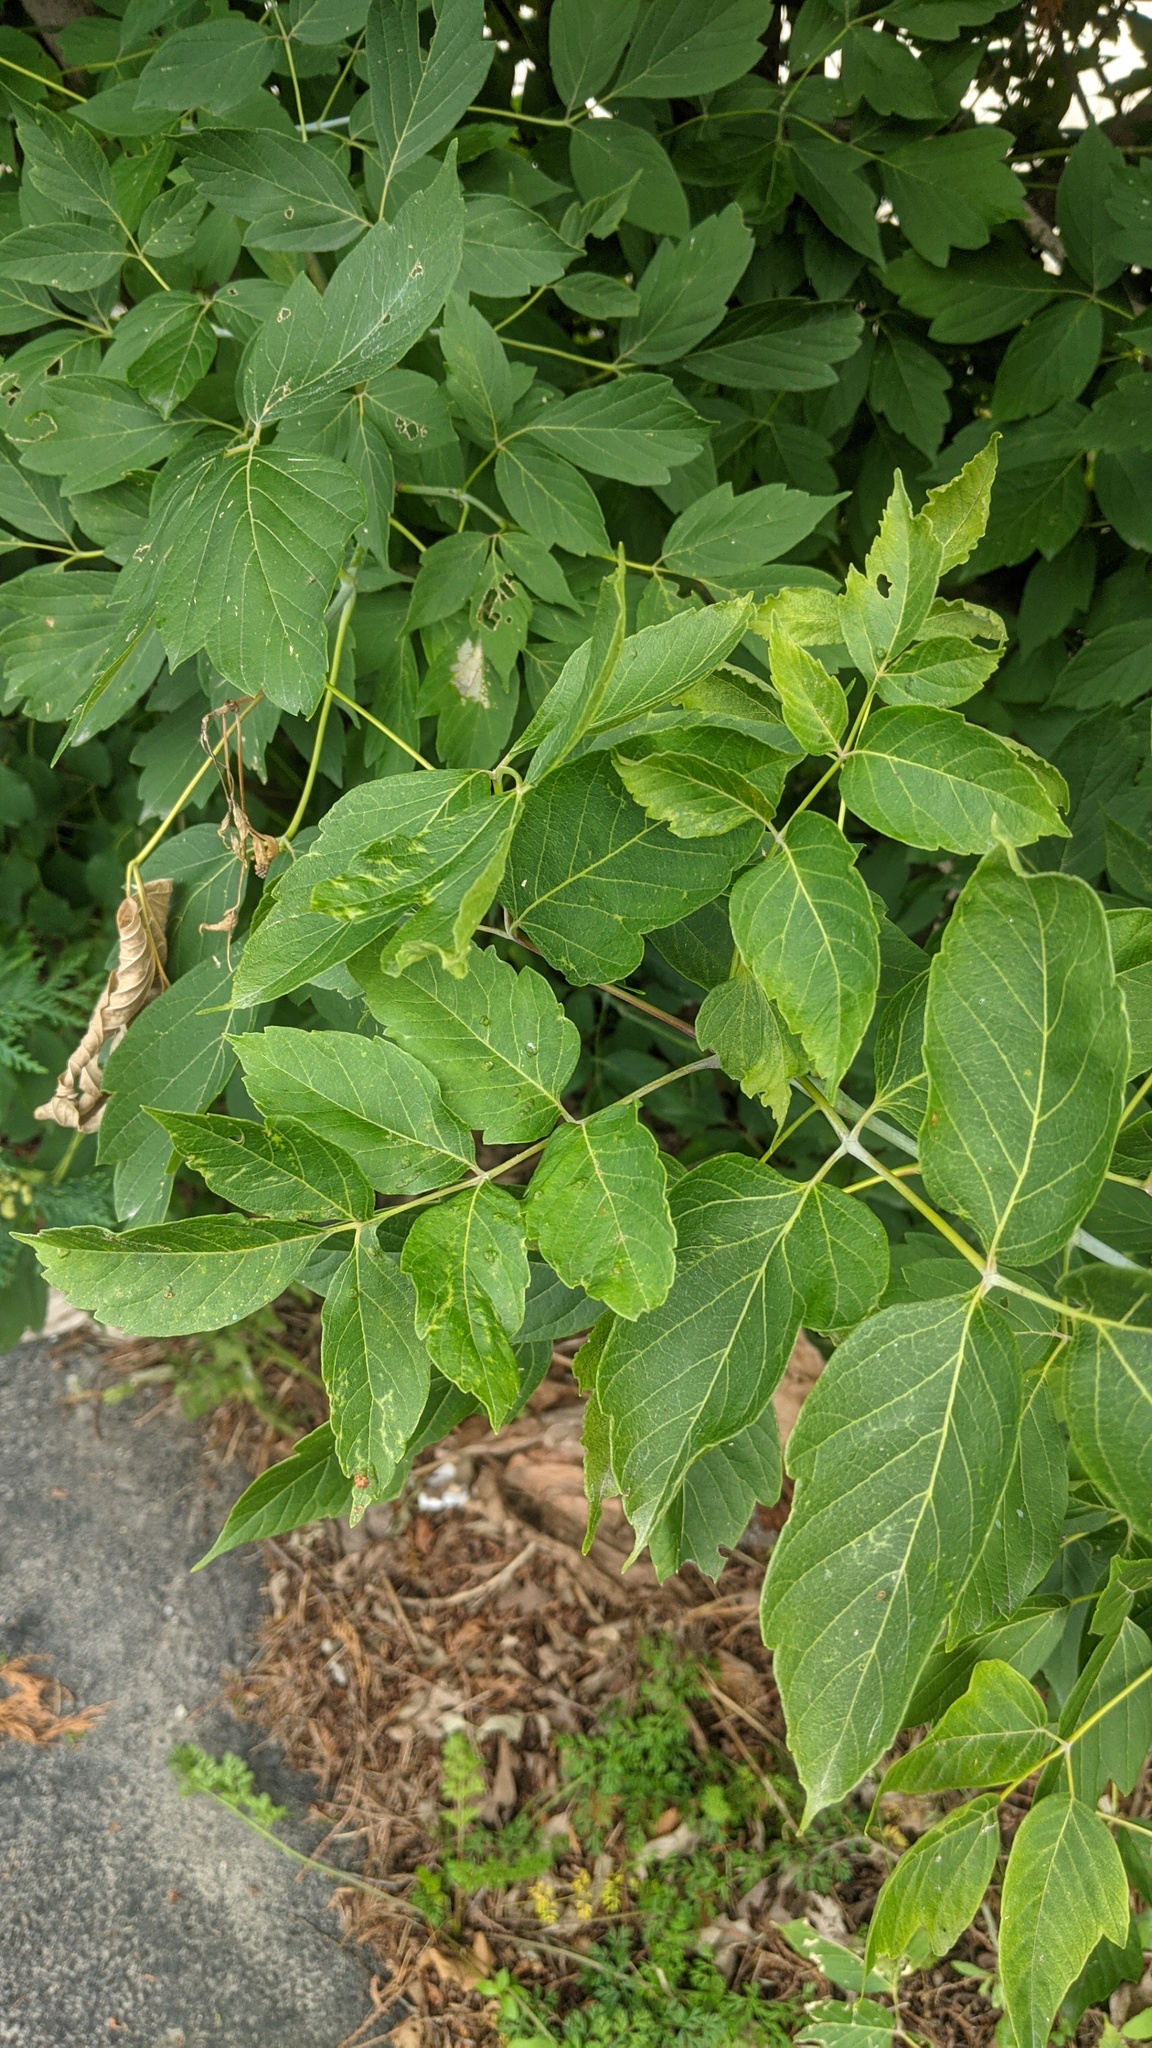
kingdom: Plantae
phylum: Tracheophyta
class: Magnoliopsida
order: Sapindales
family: Sapindaceae
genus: Acer
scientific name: Acer negundo
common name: Ashleaf maple
